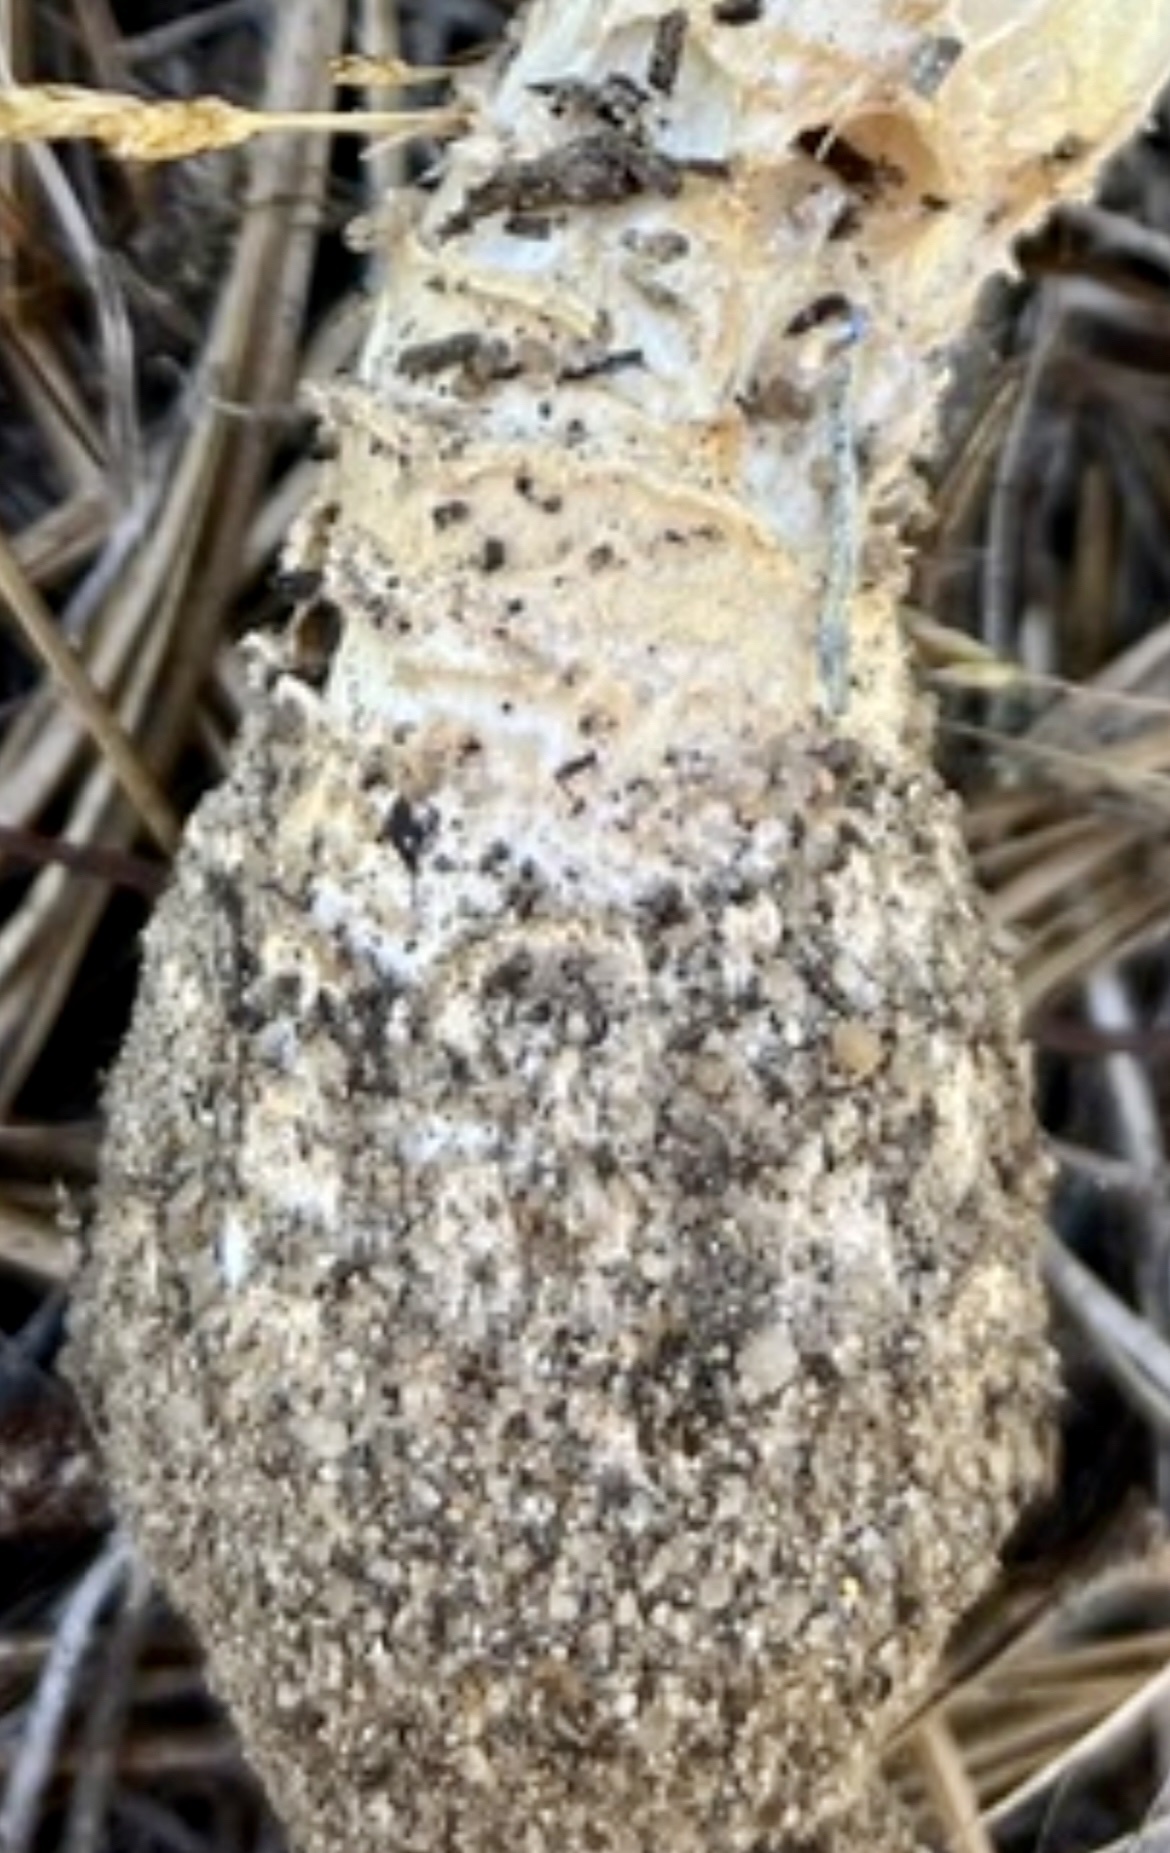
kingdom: Fungi
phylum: Basidiomycota
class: Agaricomycetes
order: Agaricales
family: Amanitaceae
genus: Amanita
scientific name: Amanita muscaria
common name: Fly agaric
